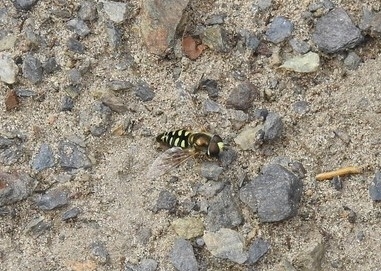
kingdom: Animalia
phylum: Arthropoda
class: Insecta
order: Diptera
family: Syrphidae
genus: Eupeodes
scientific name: Eupeodes volucris
